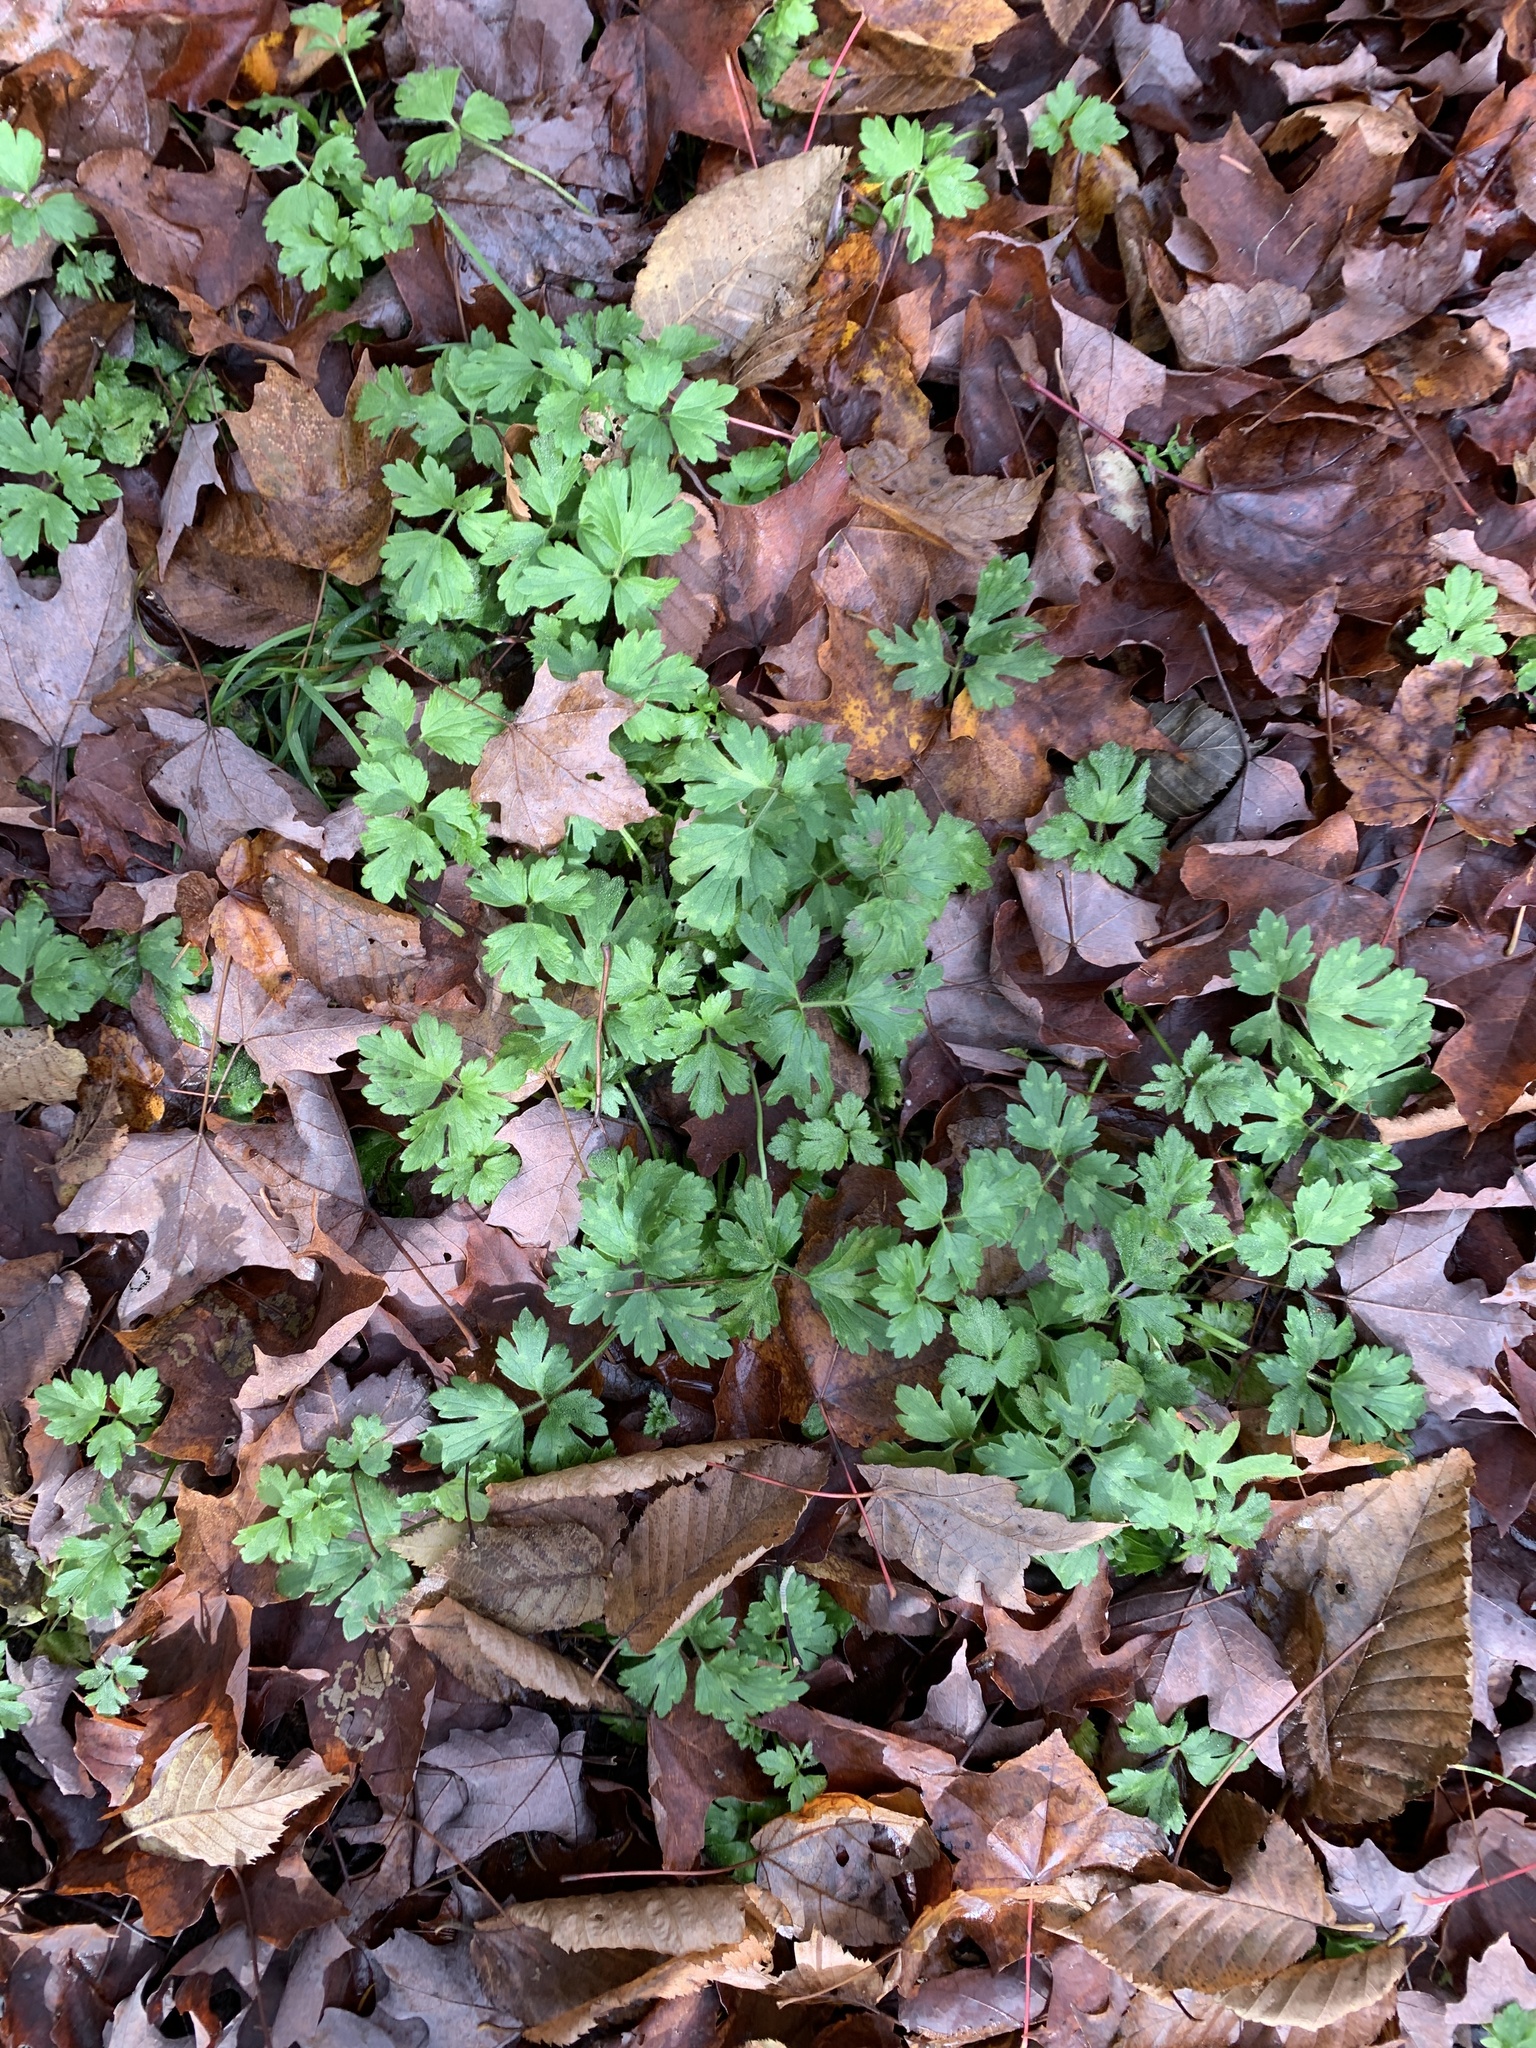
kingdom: Plantae
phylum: Tracheophyta
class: Magnoliopsida
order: Ranunculales
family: Ranunculaceae
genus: Ranunculus
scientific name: Ranunculus repens
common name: Creeping buttercup
